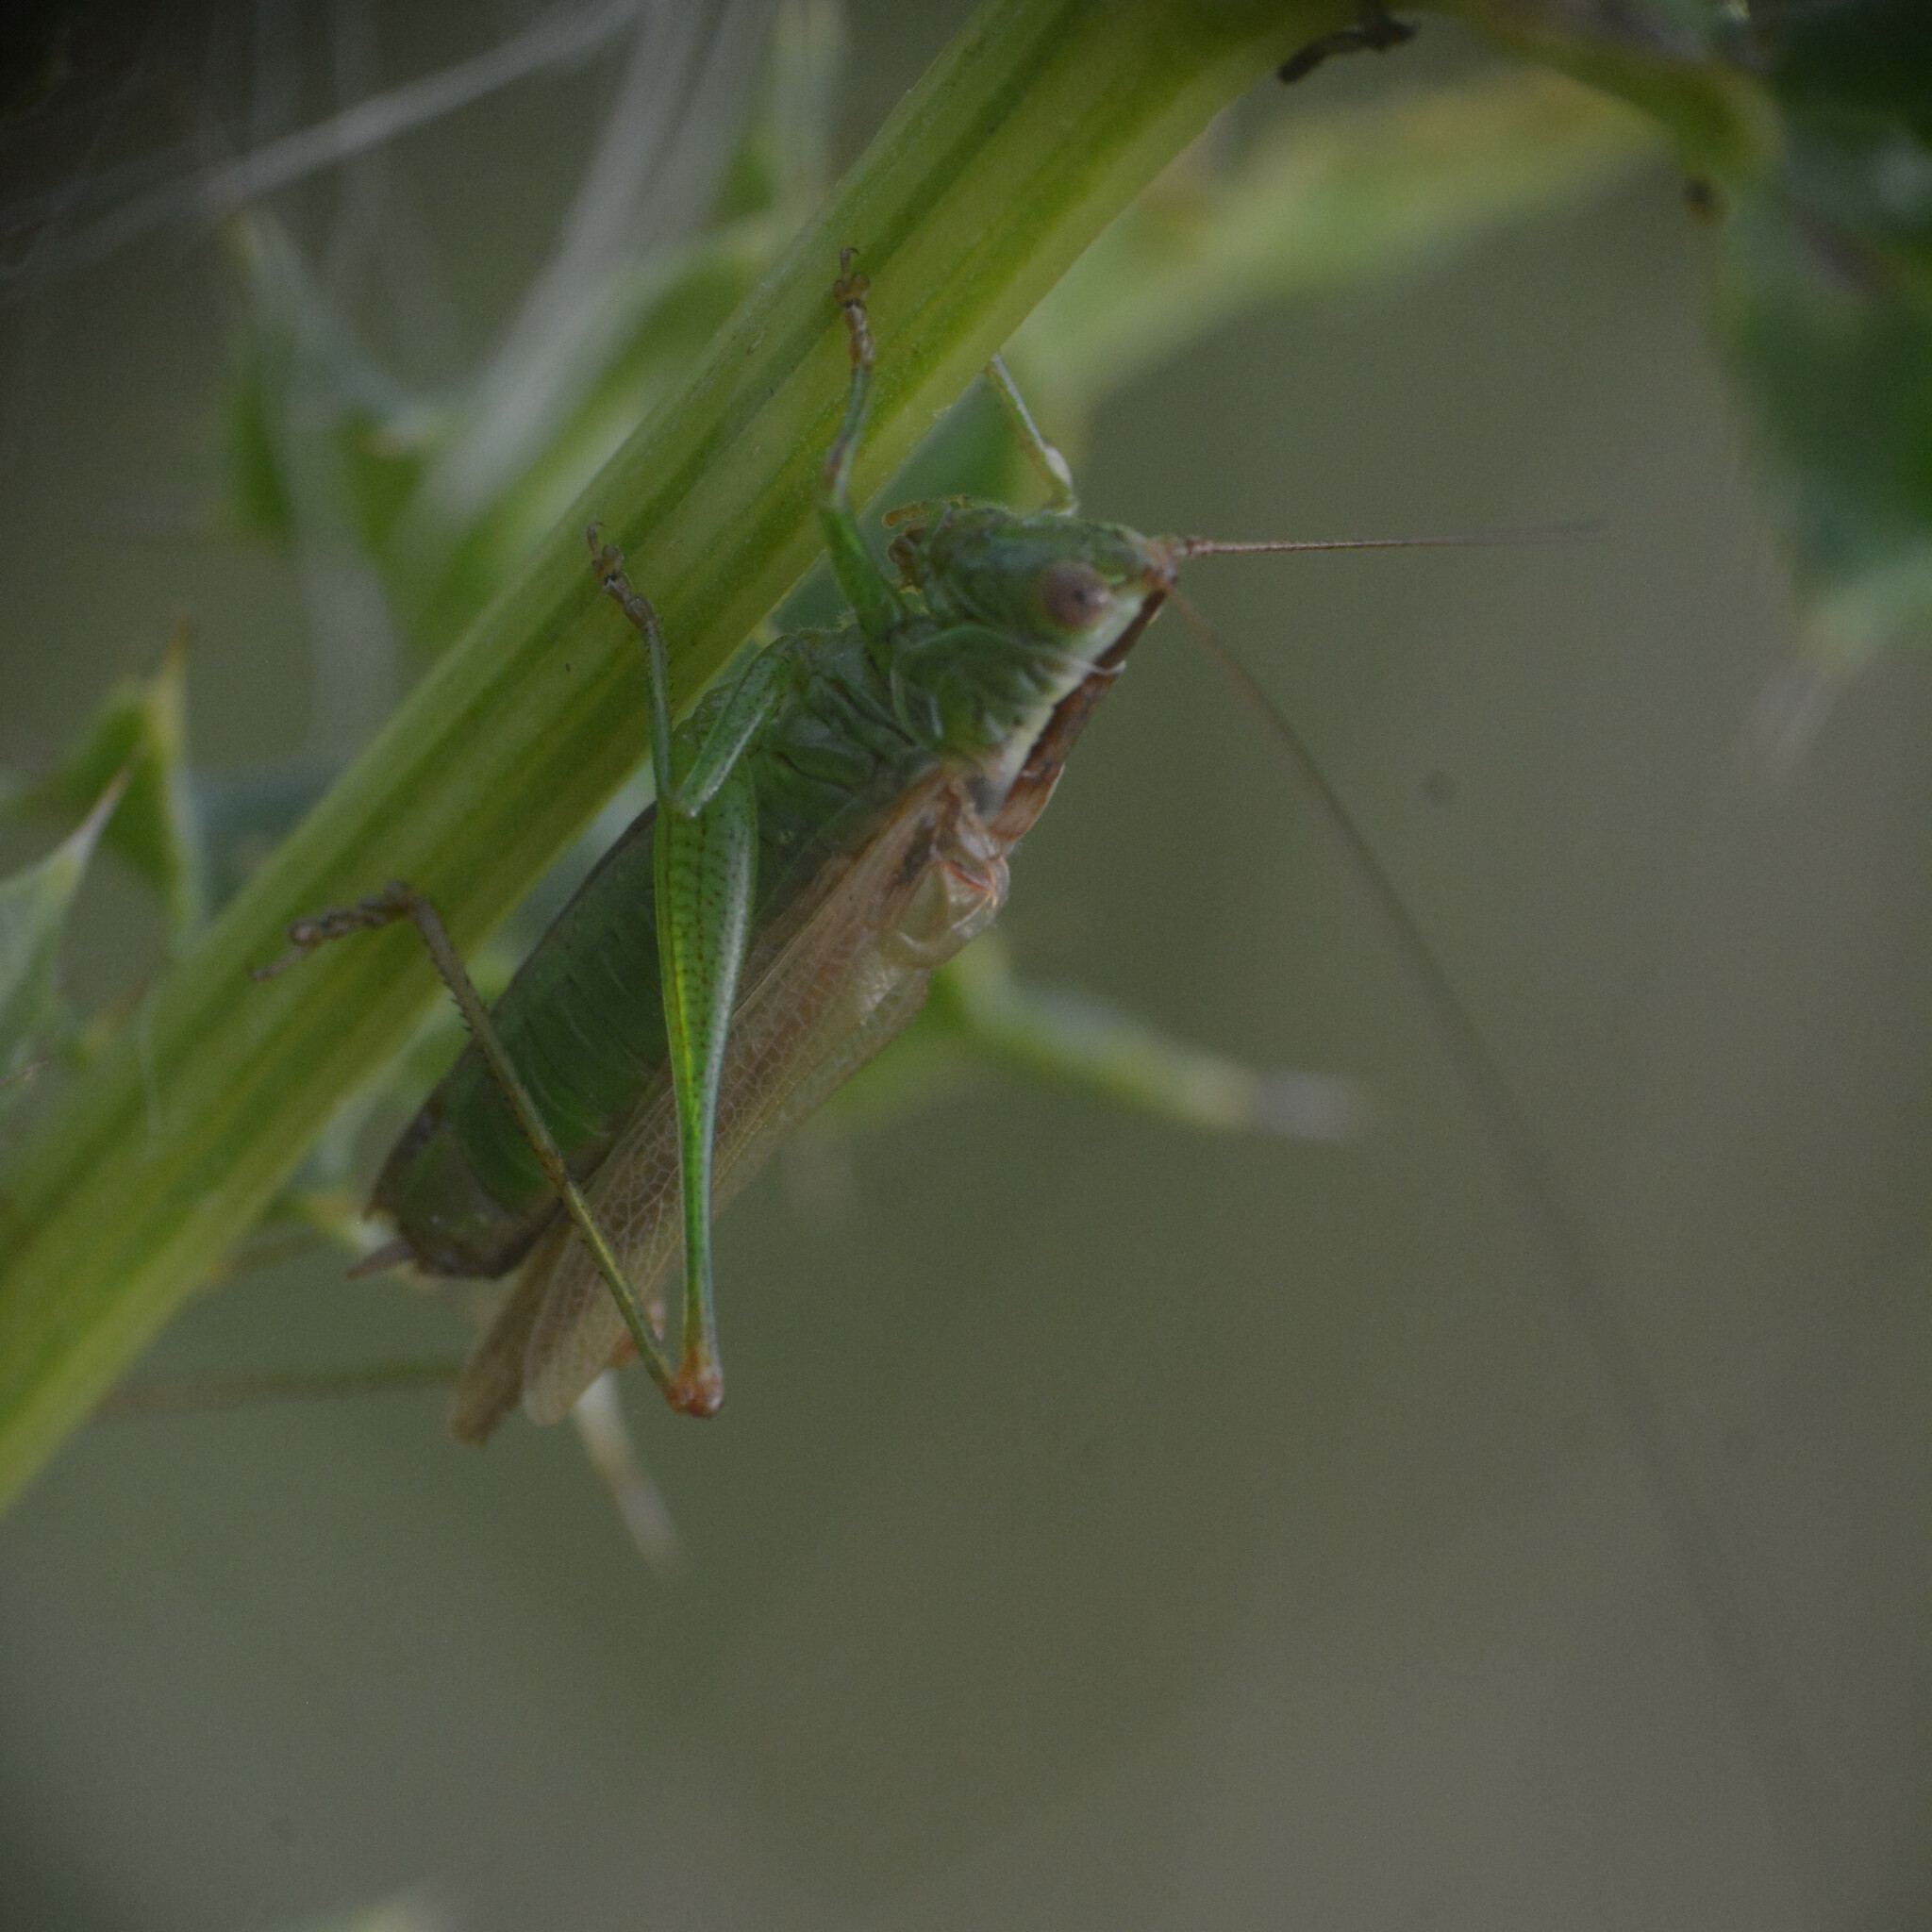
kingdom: Animalia
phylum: Arthropoda
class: Insecta
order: Orthoptera
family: Tettigoniidae
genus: Conocephalus
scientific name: Conocephalus fuscus
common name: Long-winged conehead
